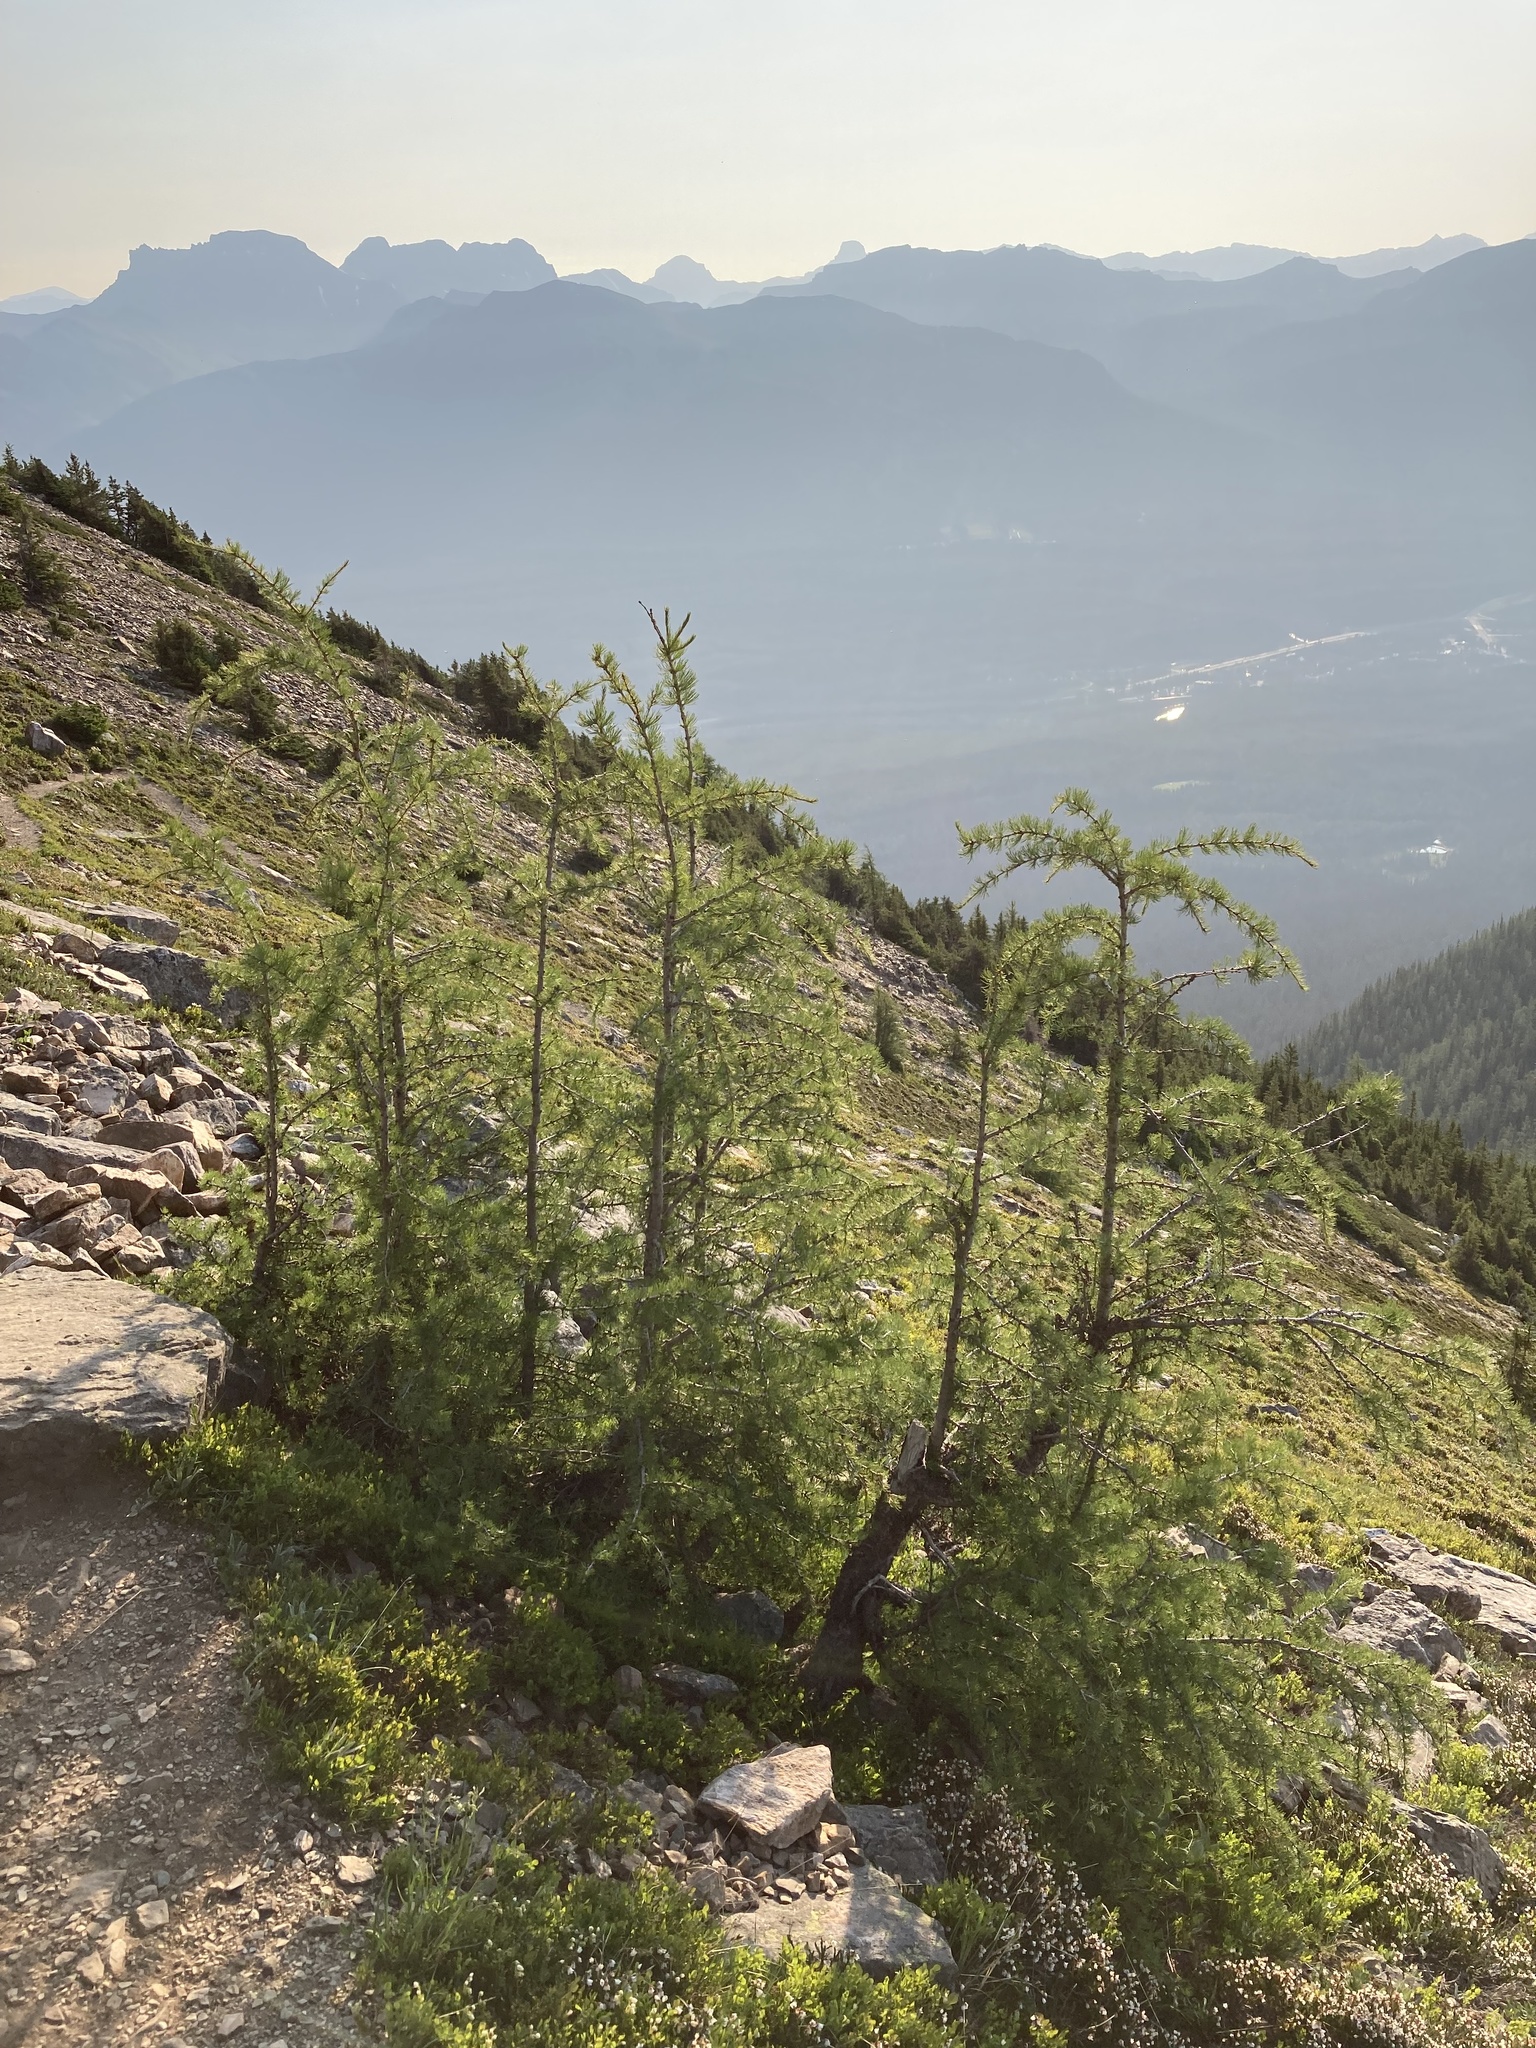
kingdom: Plantae
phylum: Tracheophyta
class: Pinopsida
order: Pinales
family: Pinaceae
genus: Larix
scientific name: Larix lyallii
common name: Alpine larch
